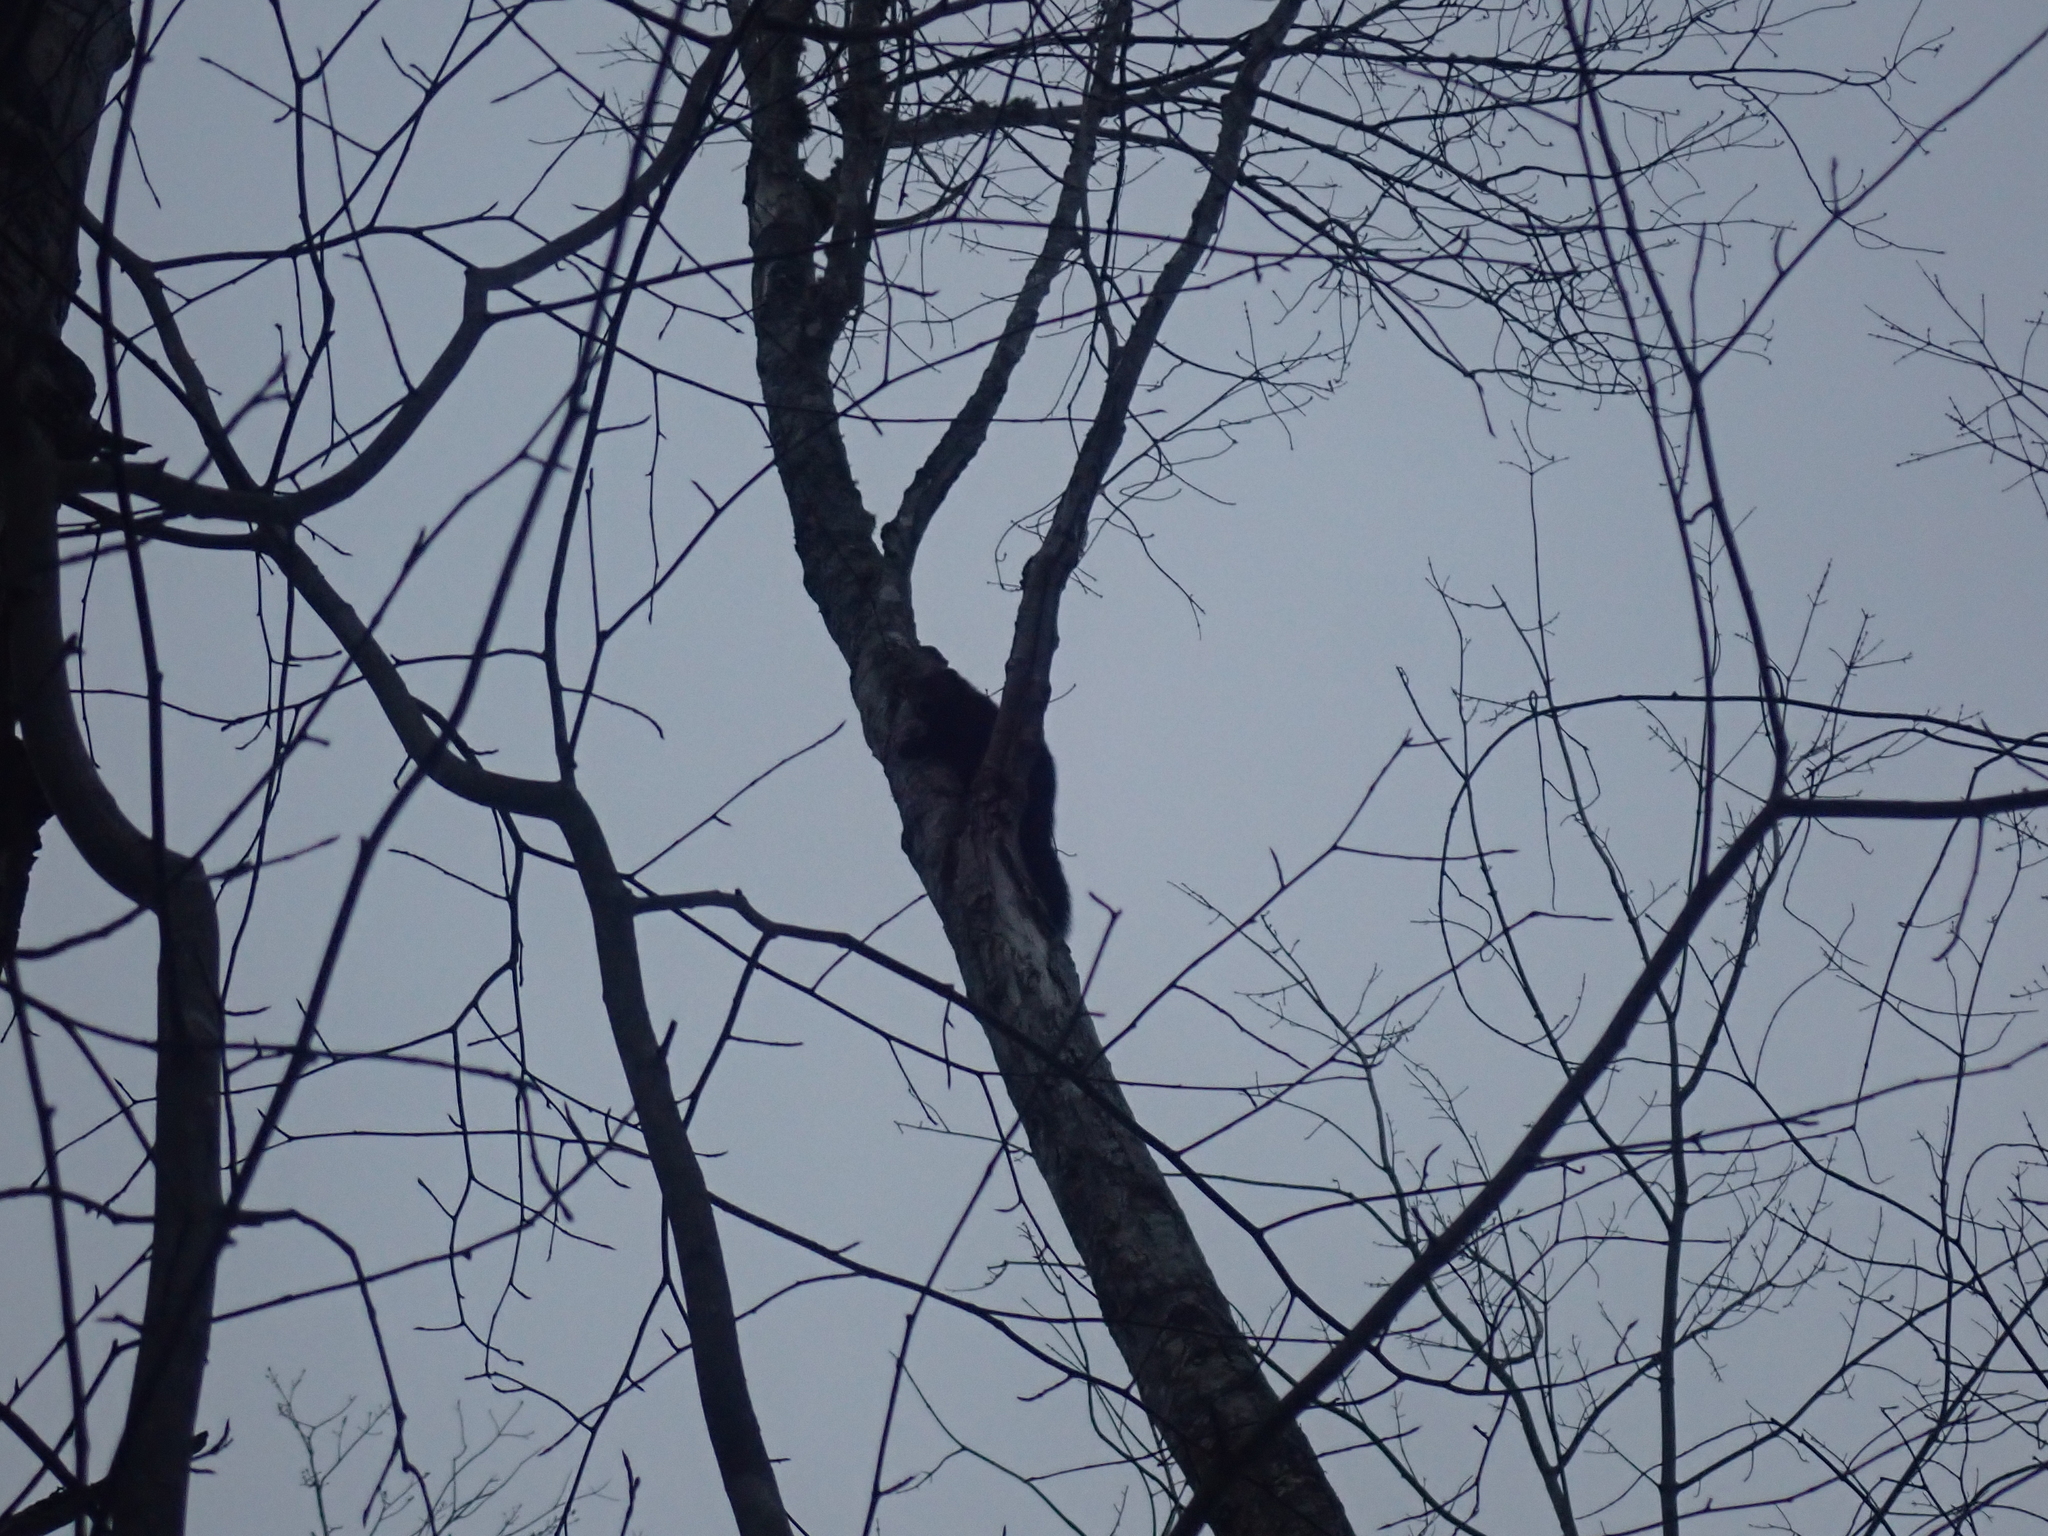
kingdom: Animalia
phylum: Chordata
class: Mammalia
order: Carnivora
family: Mustelidae
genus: Pekania
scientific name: Pekania pennanti
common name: Fisher
